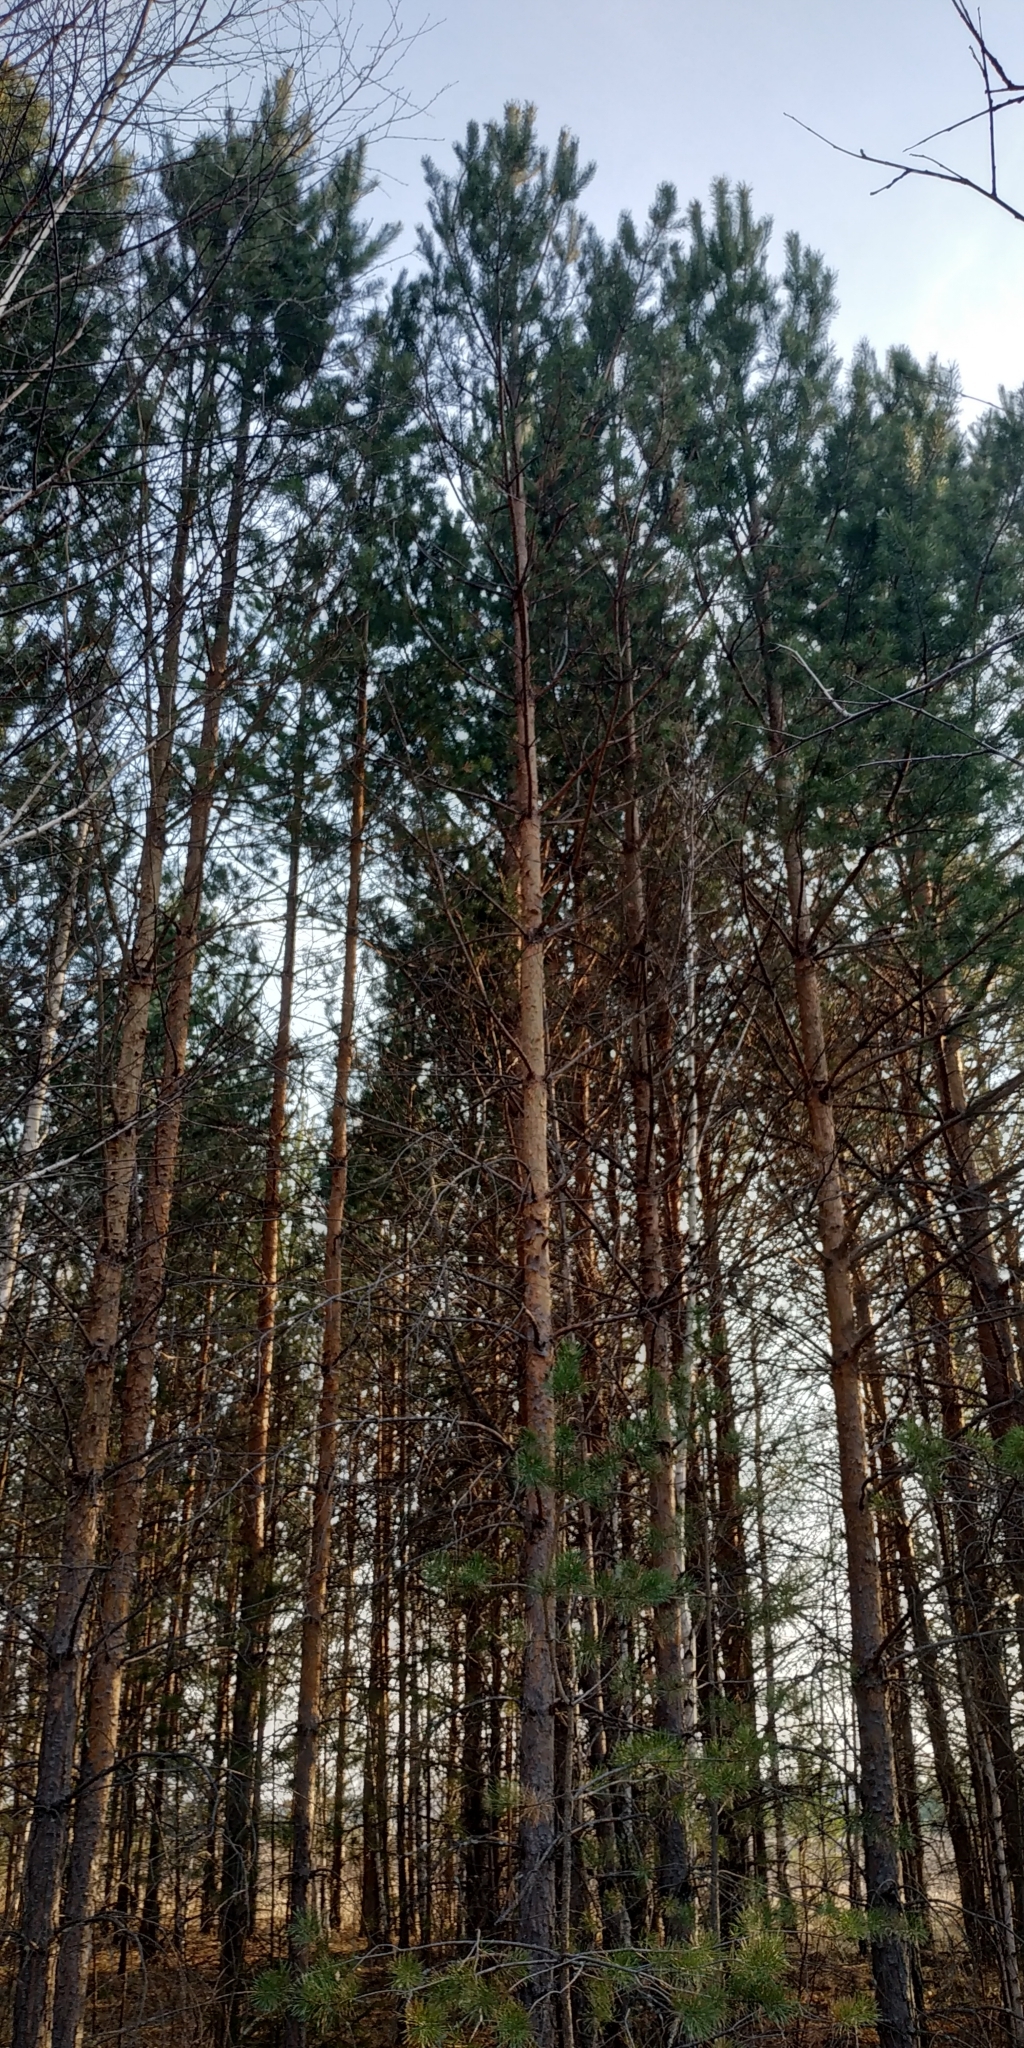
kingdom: Plantae
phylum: Tracheophyta
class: Pinopsida
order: Pinales
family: Pinaceae
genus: Pinus
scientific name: Pinus sylvestris
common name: Scots pine
